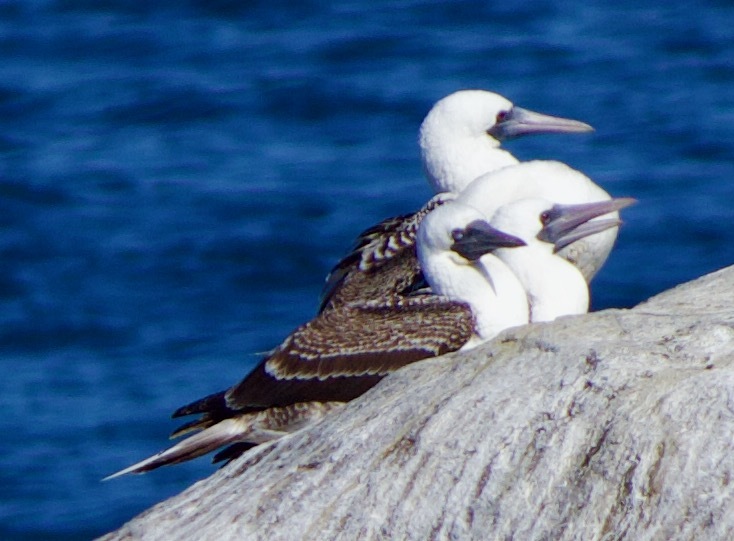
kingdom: Animalia
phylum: Chordata
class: Aves
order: Suliformes
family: Sulidae
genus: Sula
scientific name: Sula variegata
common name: Peruvian booby
